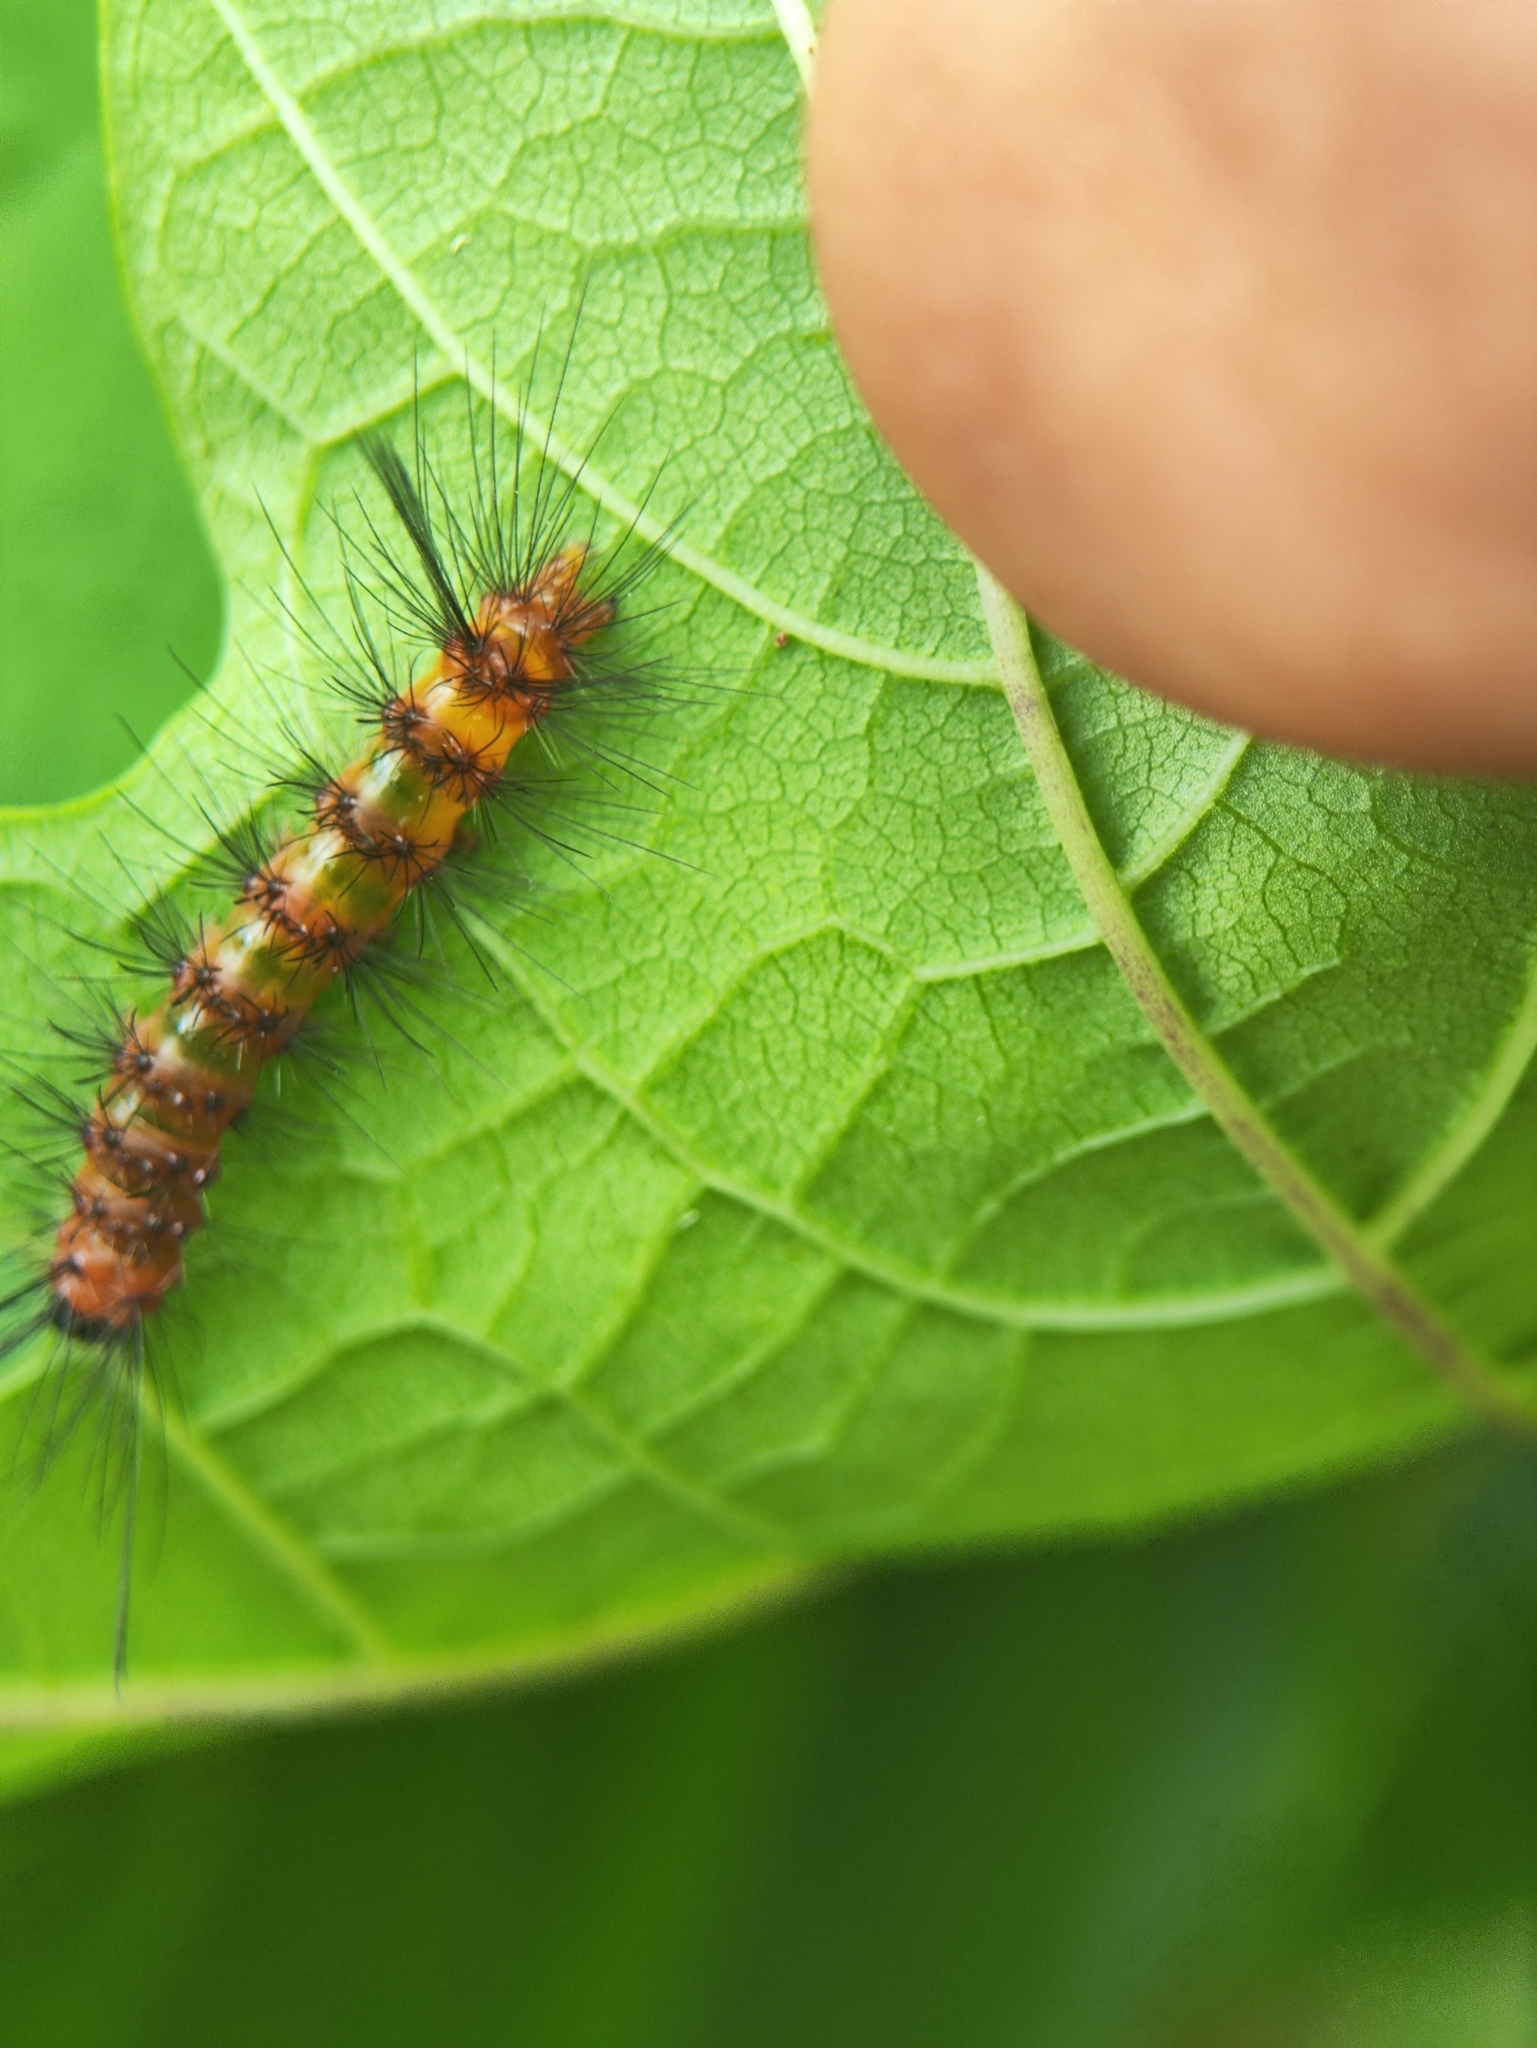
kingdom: Animalia
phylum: Arthropoda
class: Insecta
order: Lepidoptera
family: Erebidae
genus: Euchromia
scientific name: Euchromia polymena
